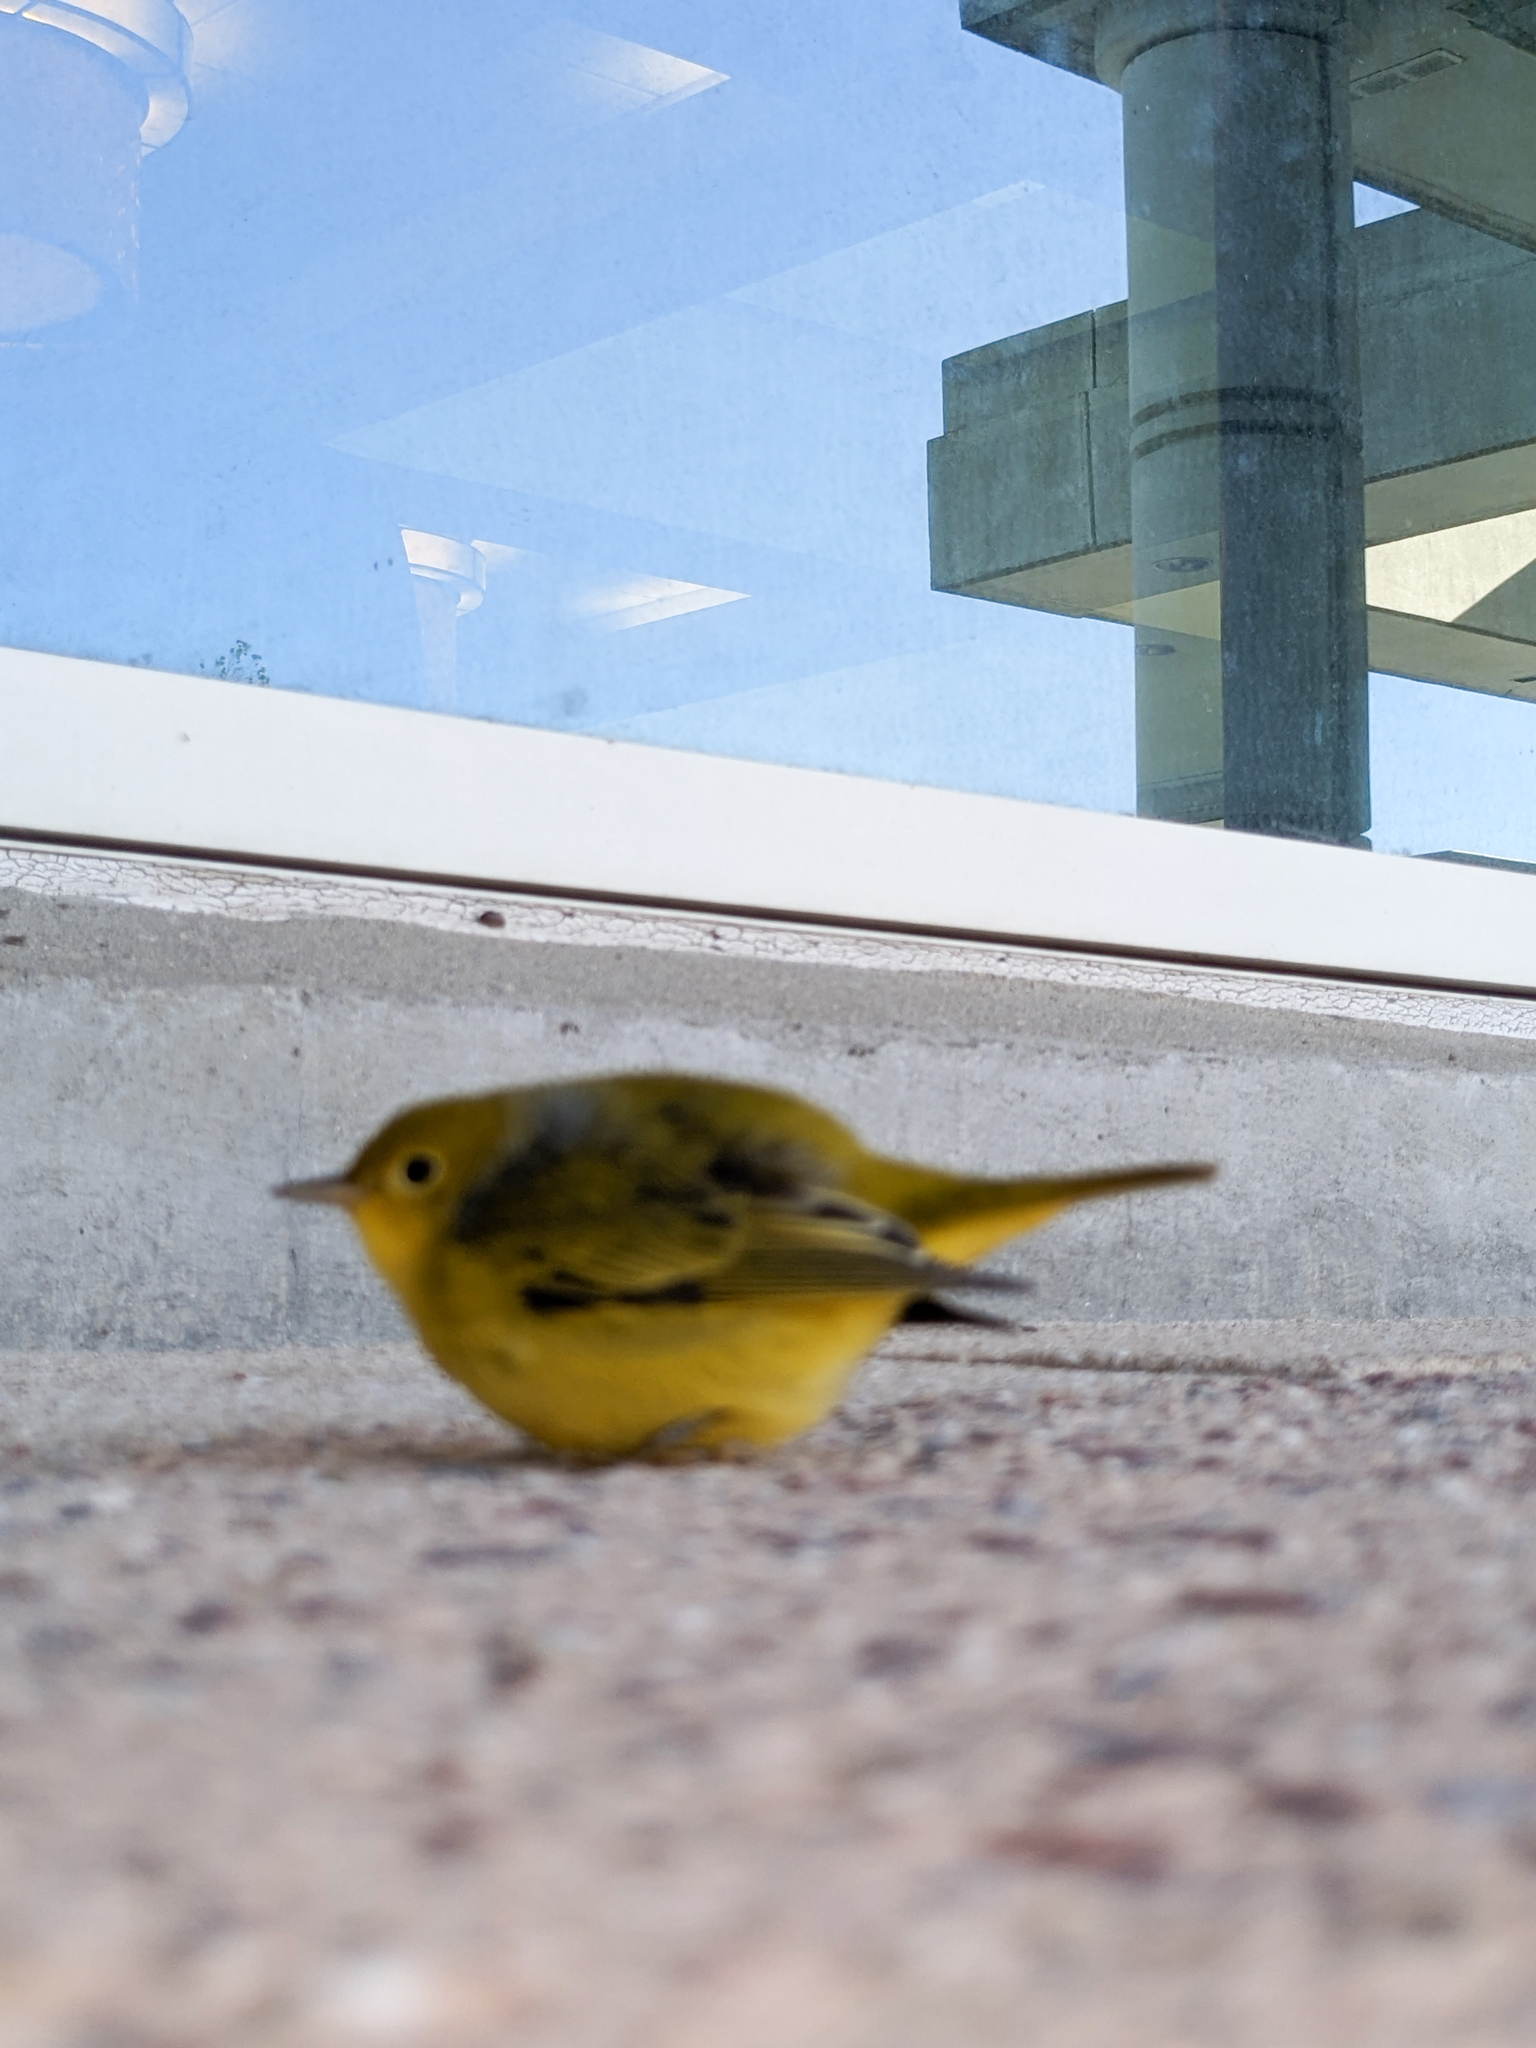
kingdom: Animalia
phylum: Chordata
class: Aves
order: Passeriformes
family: Parulidae
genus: Setophaga
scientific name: Setophaga petechia
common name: Yellow warbler
